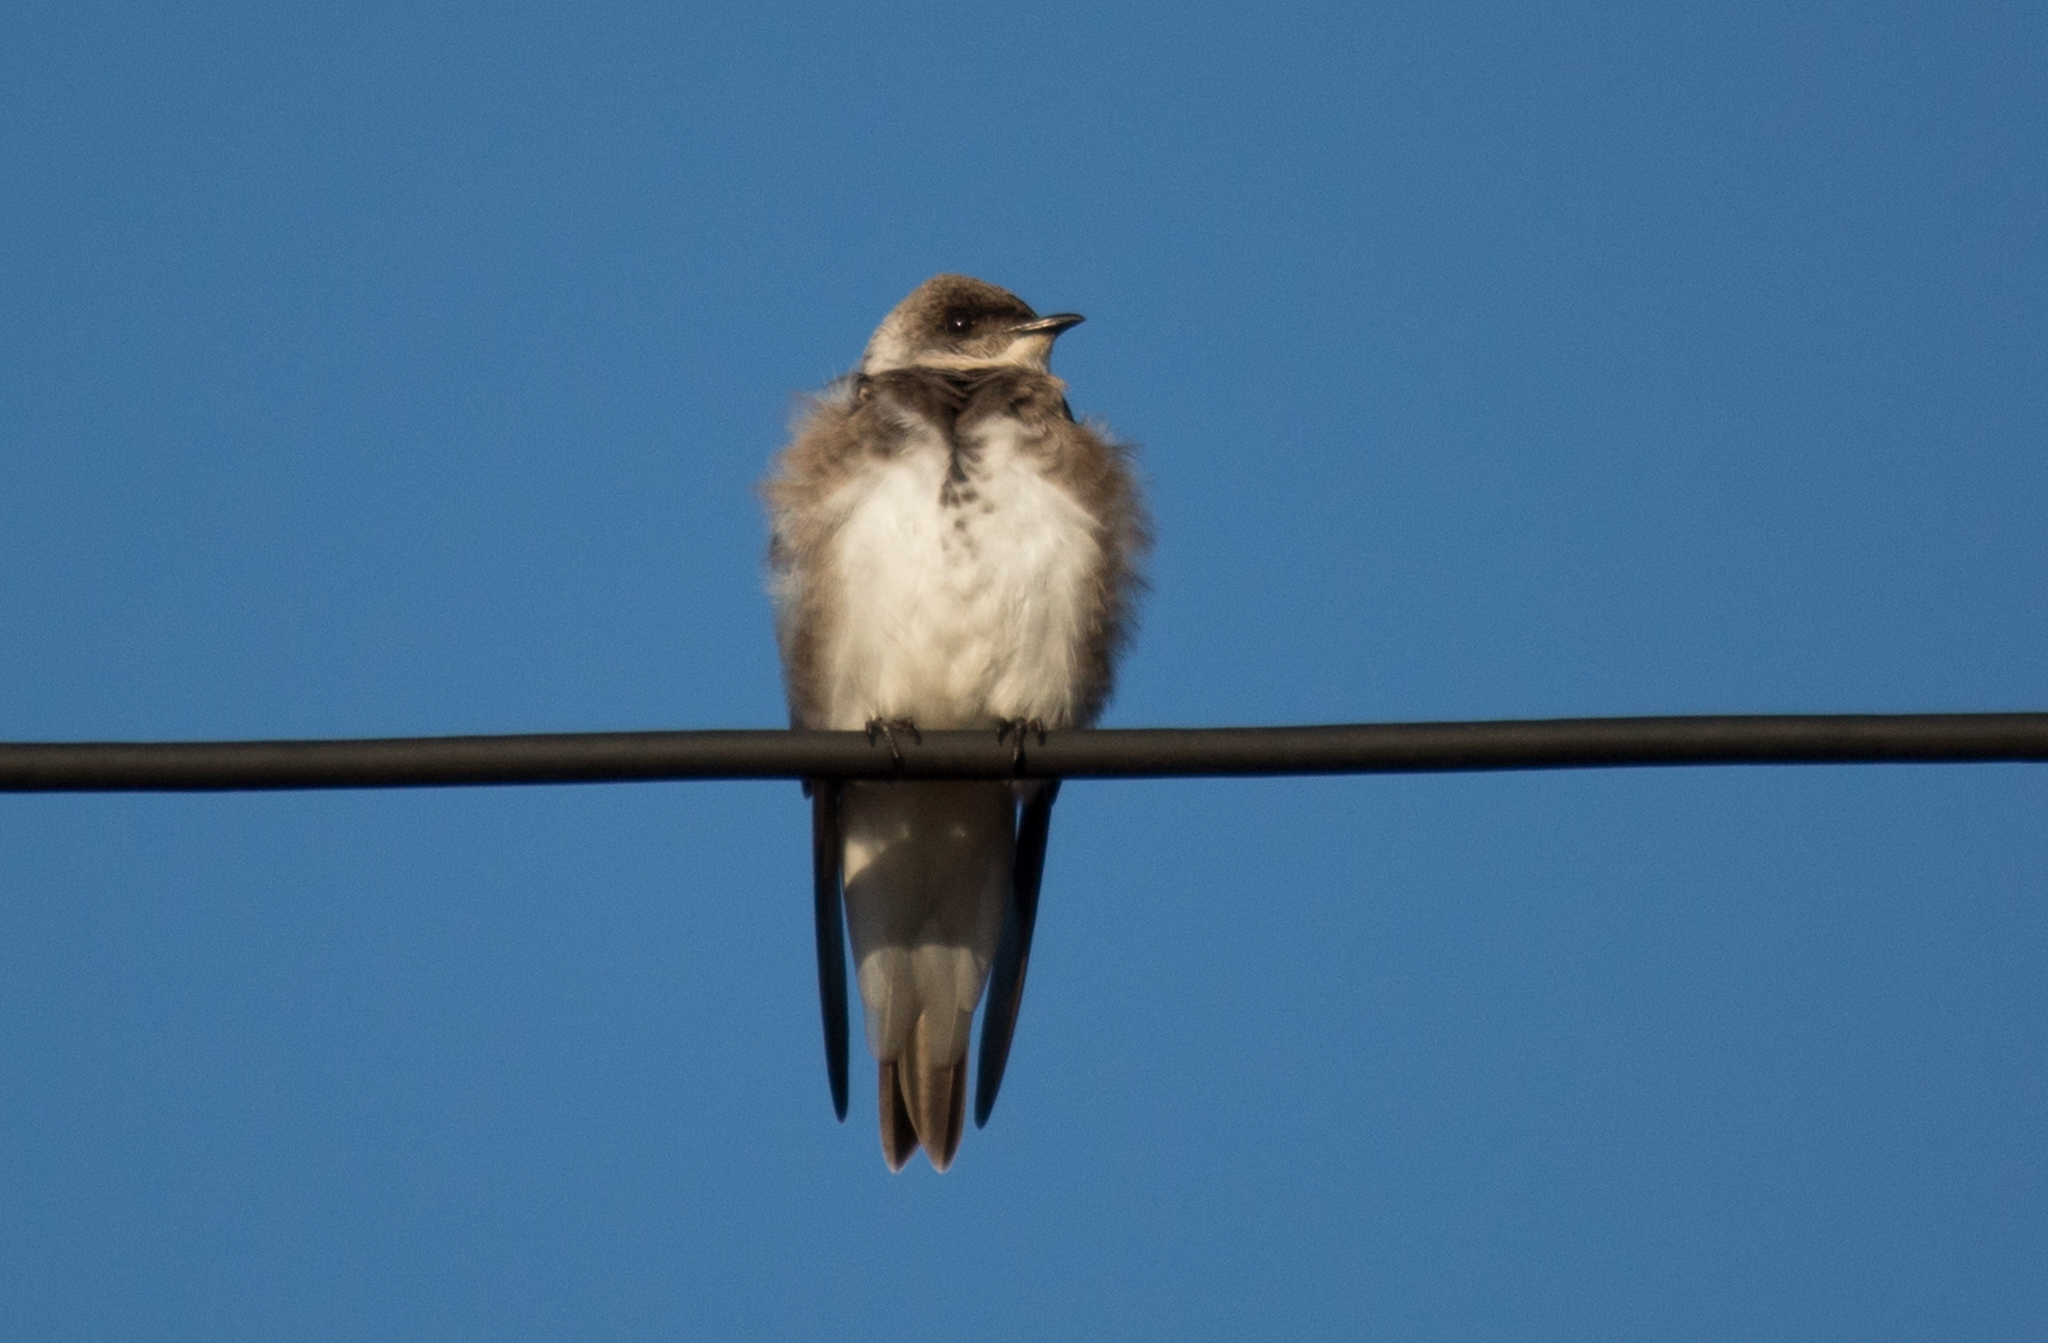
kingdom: Animalia
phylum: Chordata
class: Aves
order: Passeriformes
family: Hirundinidae
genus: Progne
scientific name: Progne tapera
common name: Brown-chested martin
